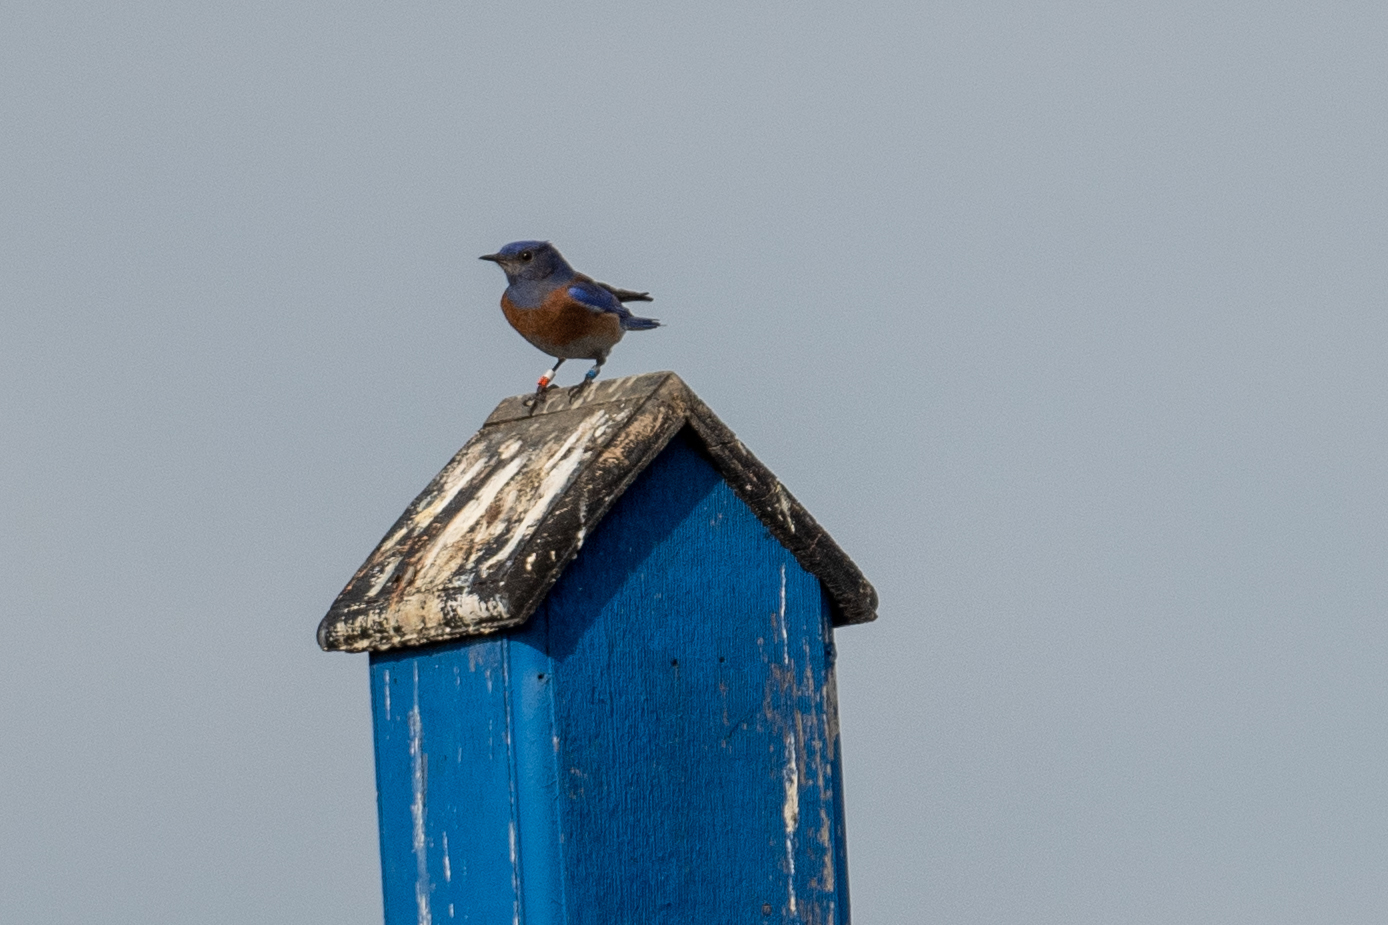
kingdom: Animalia
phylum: Chordata
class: Aves
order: Passeriformes
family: Turdidae
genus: Sialia
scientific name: Sialia mexicana
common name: Western bluebird
